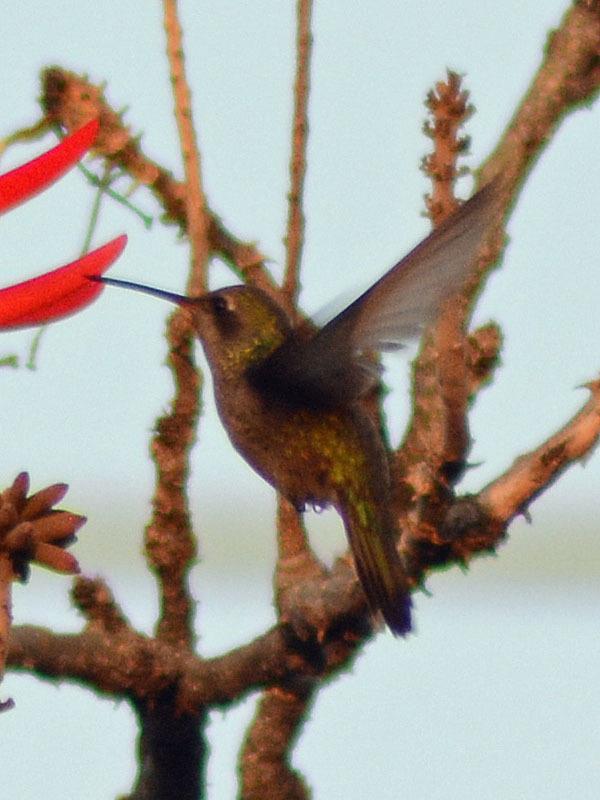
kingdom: Animalia
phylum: Chordata
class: Aves
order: Apodiformes
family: Trochilidae
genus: Cynanthus
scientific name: Cynanthus latirostris
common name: Broad-billed hummingbird
